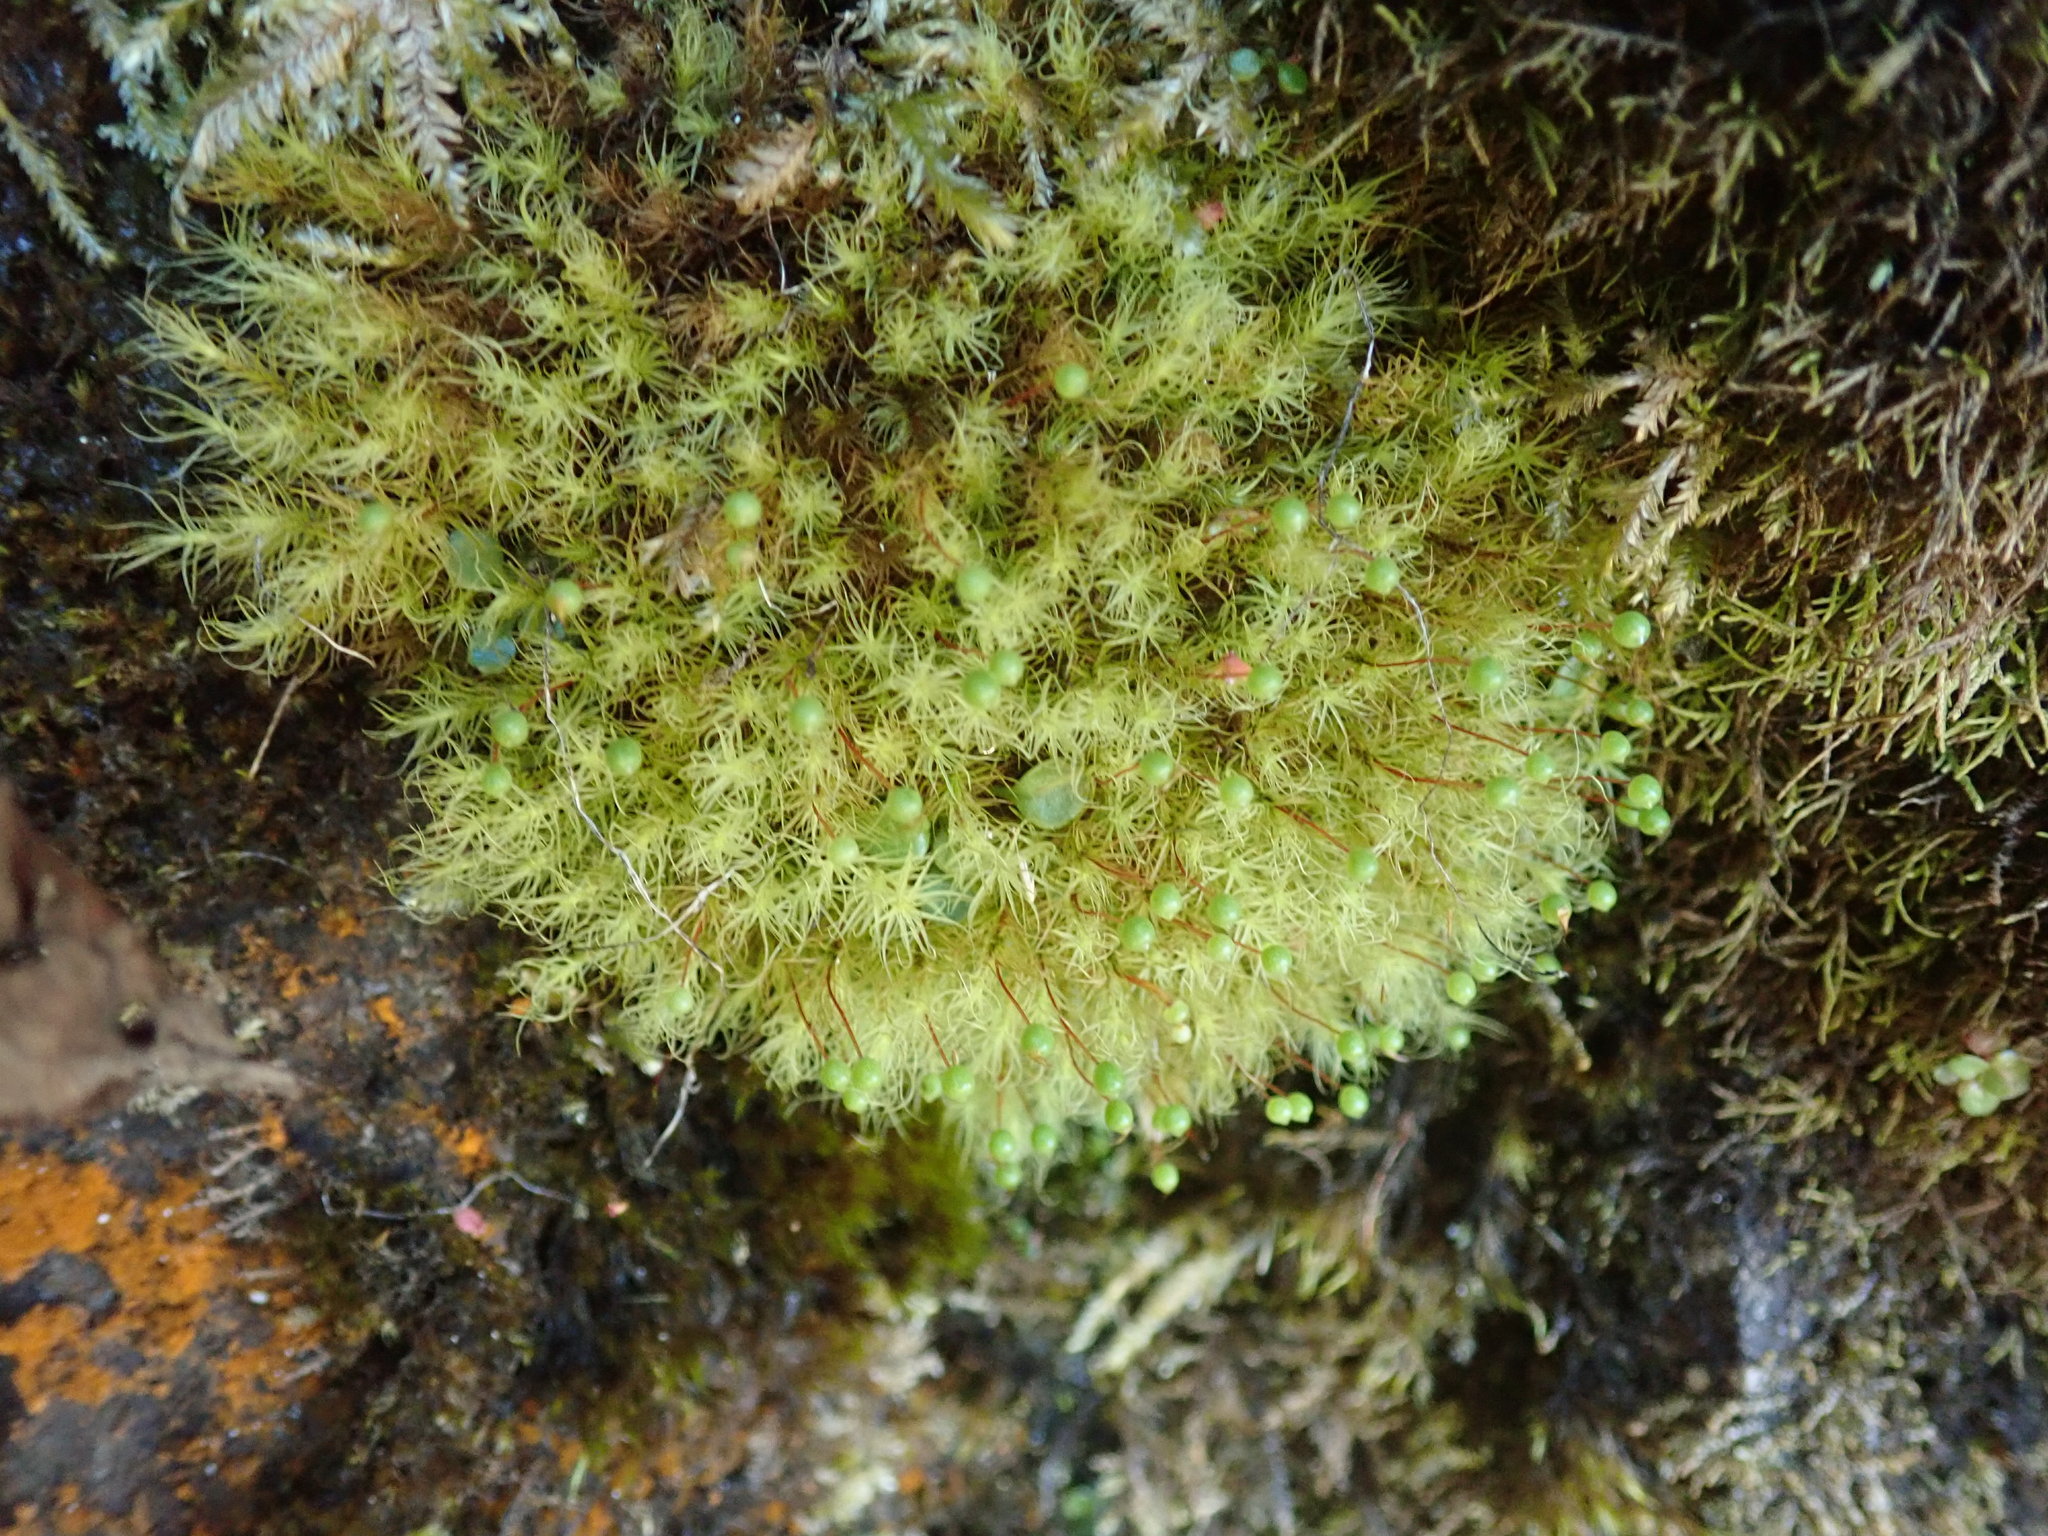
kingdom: Plantae
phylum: Bryophyta
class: Bryopsida
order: Bartramiales
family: Bartramiaceae
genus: Bartramia
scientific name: Bartramia ithyphylla
